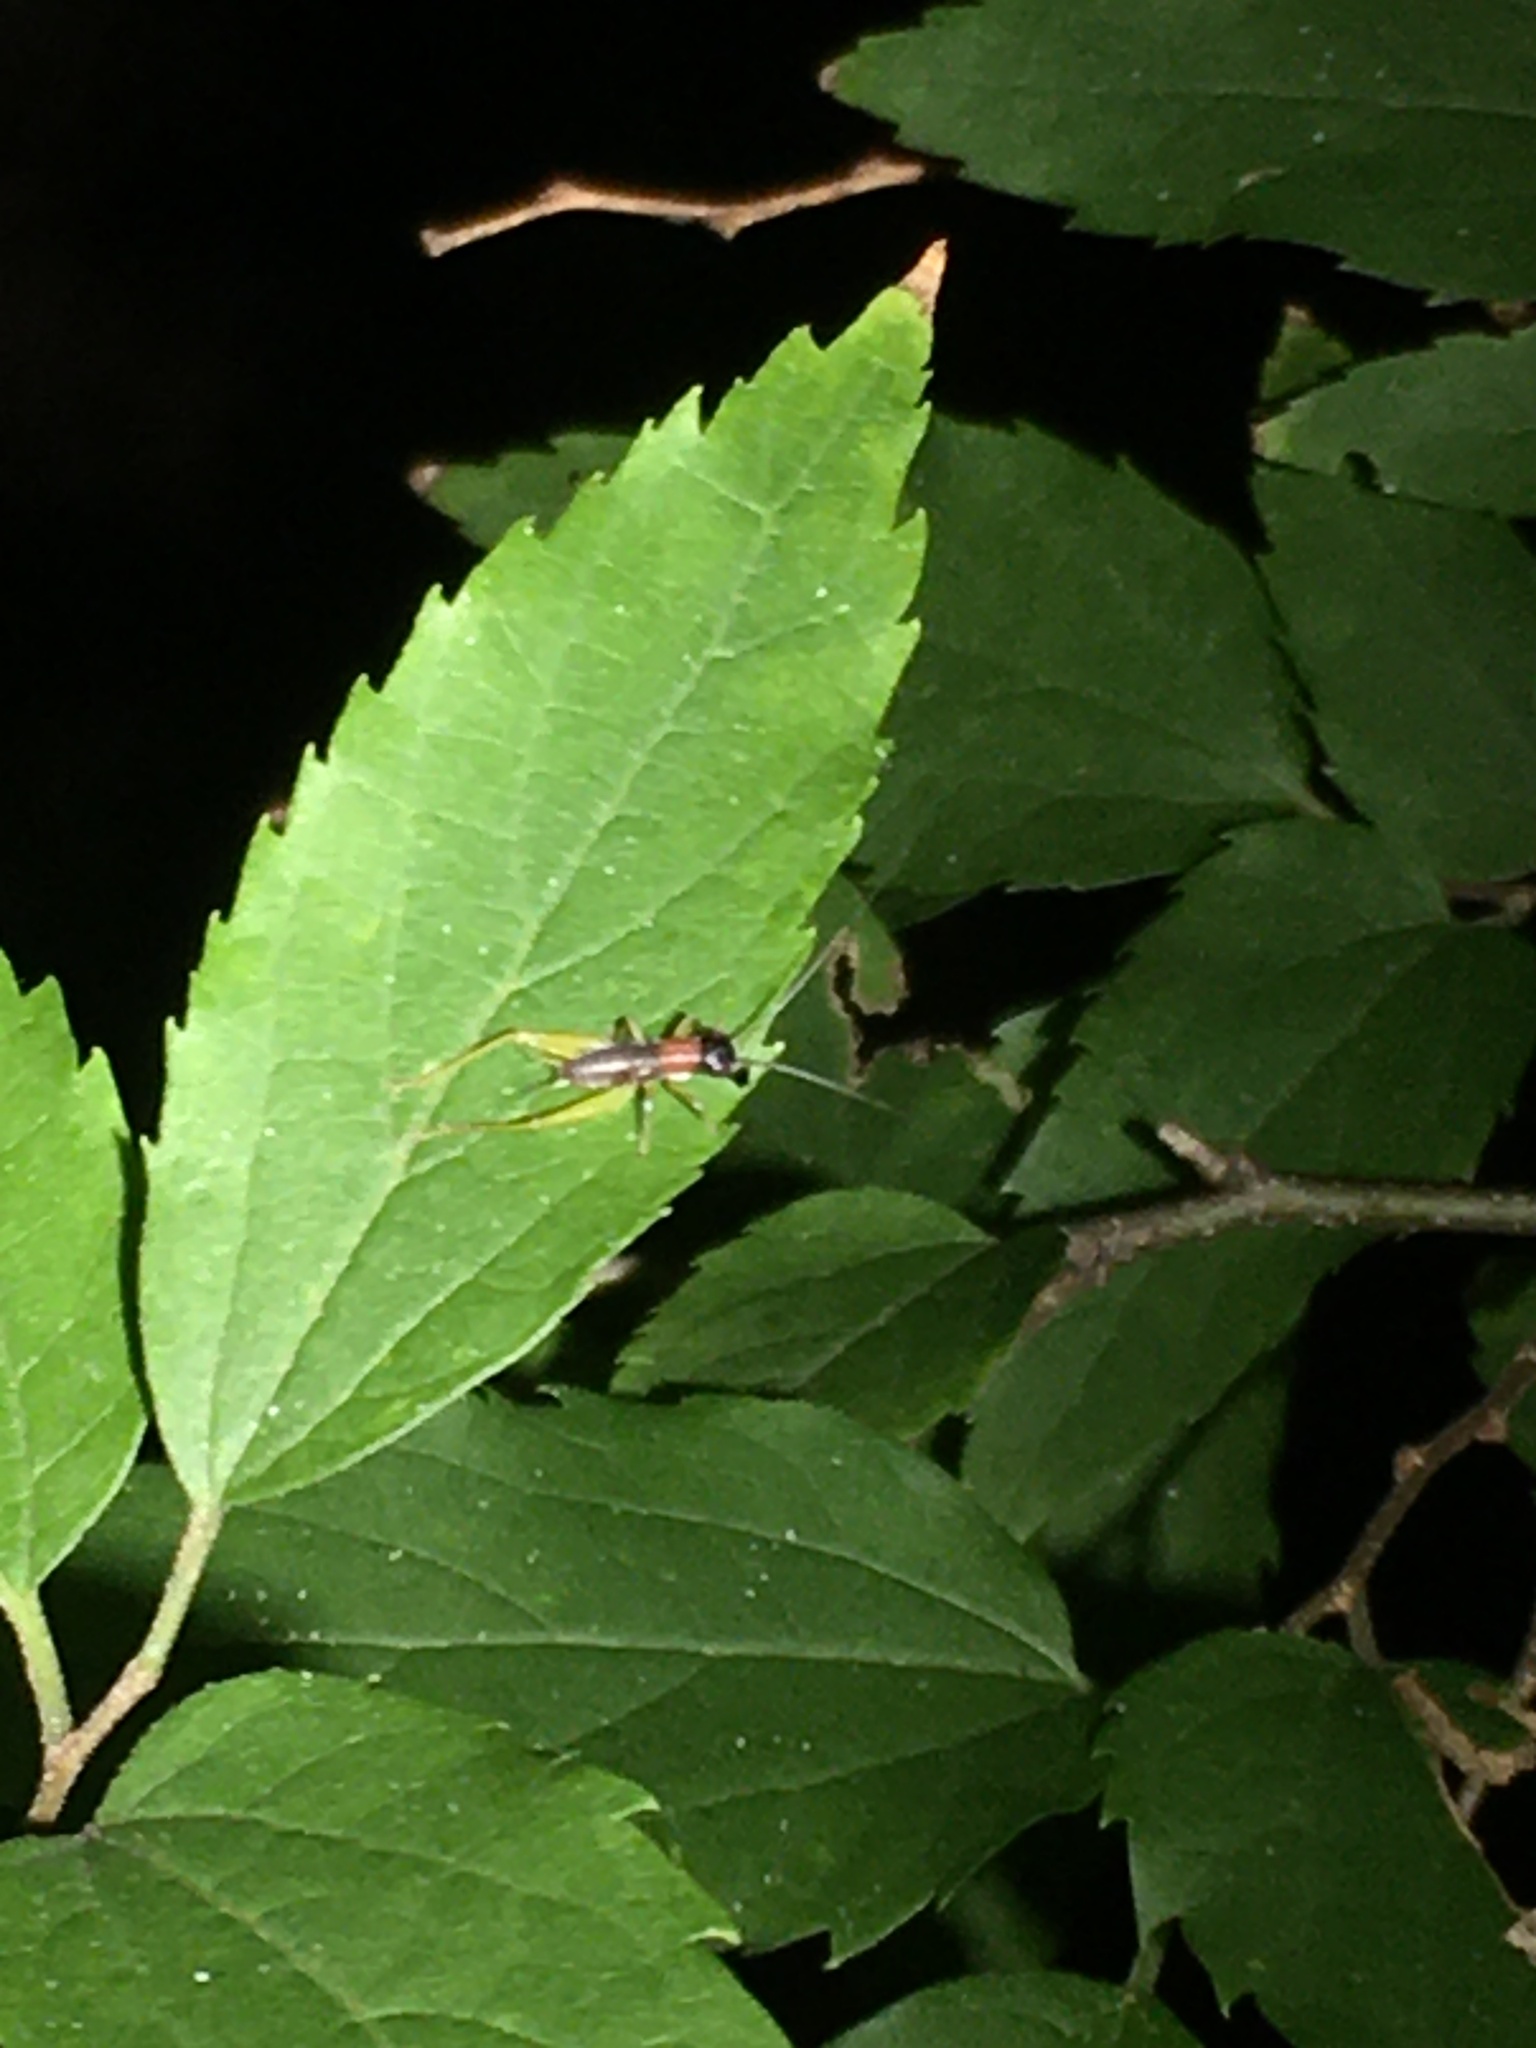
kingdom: Animalia
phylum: Arthropoda
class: Insecta
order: Orthoptera
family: Trigonidiidae
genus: Phyllopalpus
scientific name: Phyllopalpus pulchellus
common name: Handsome trig
